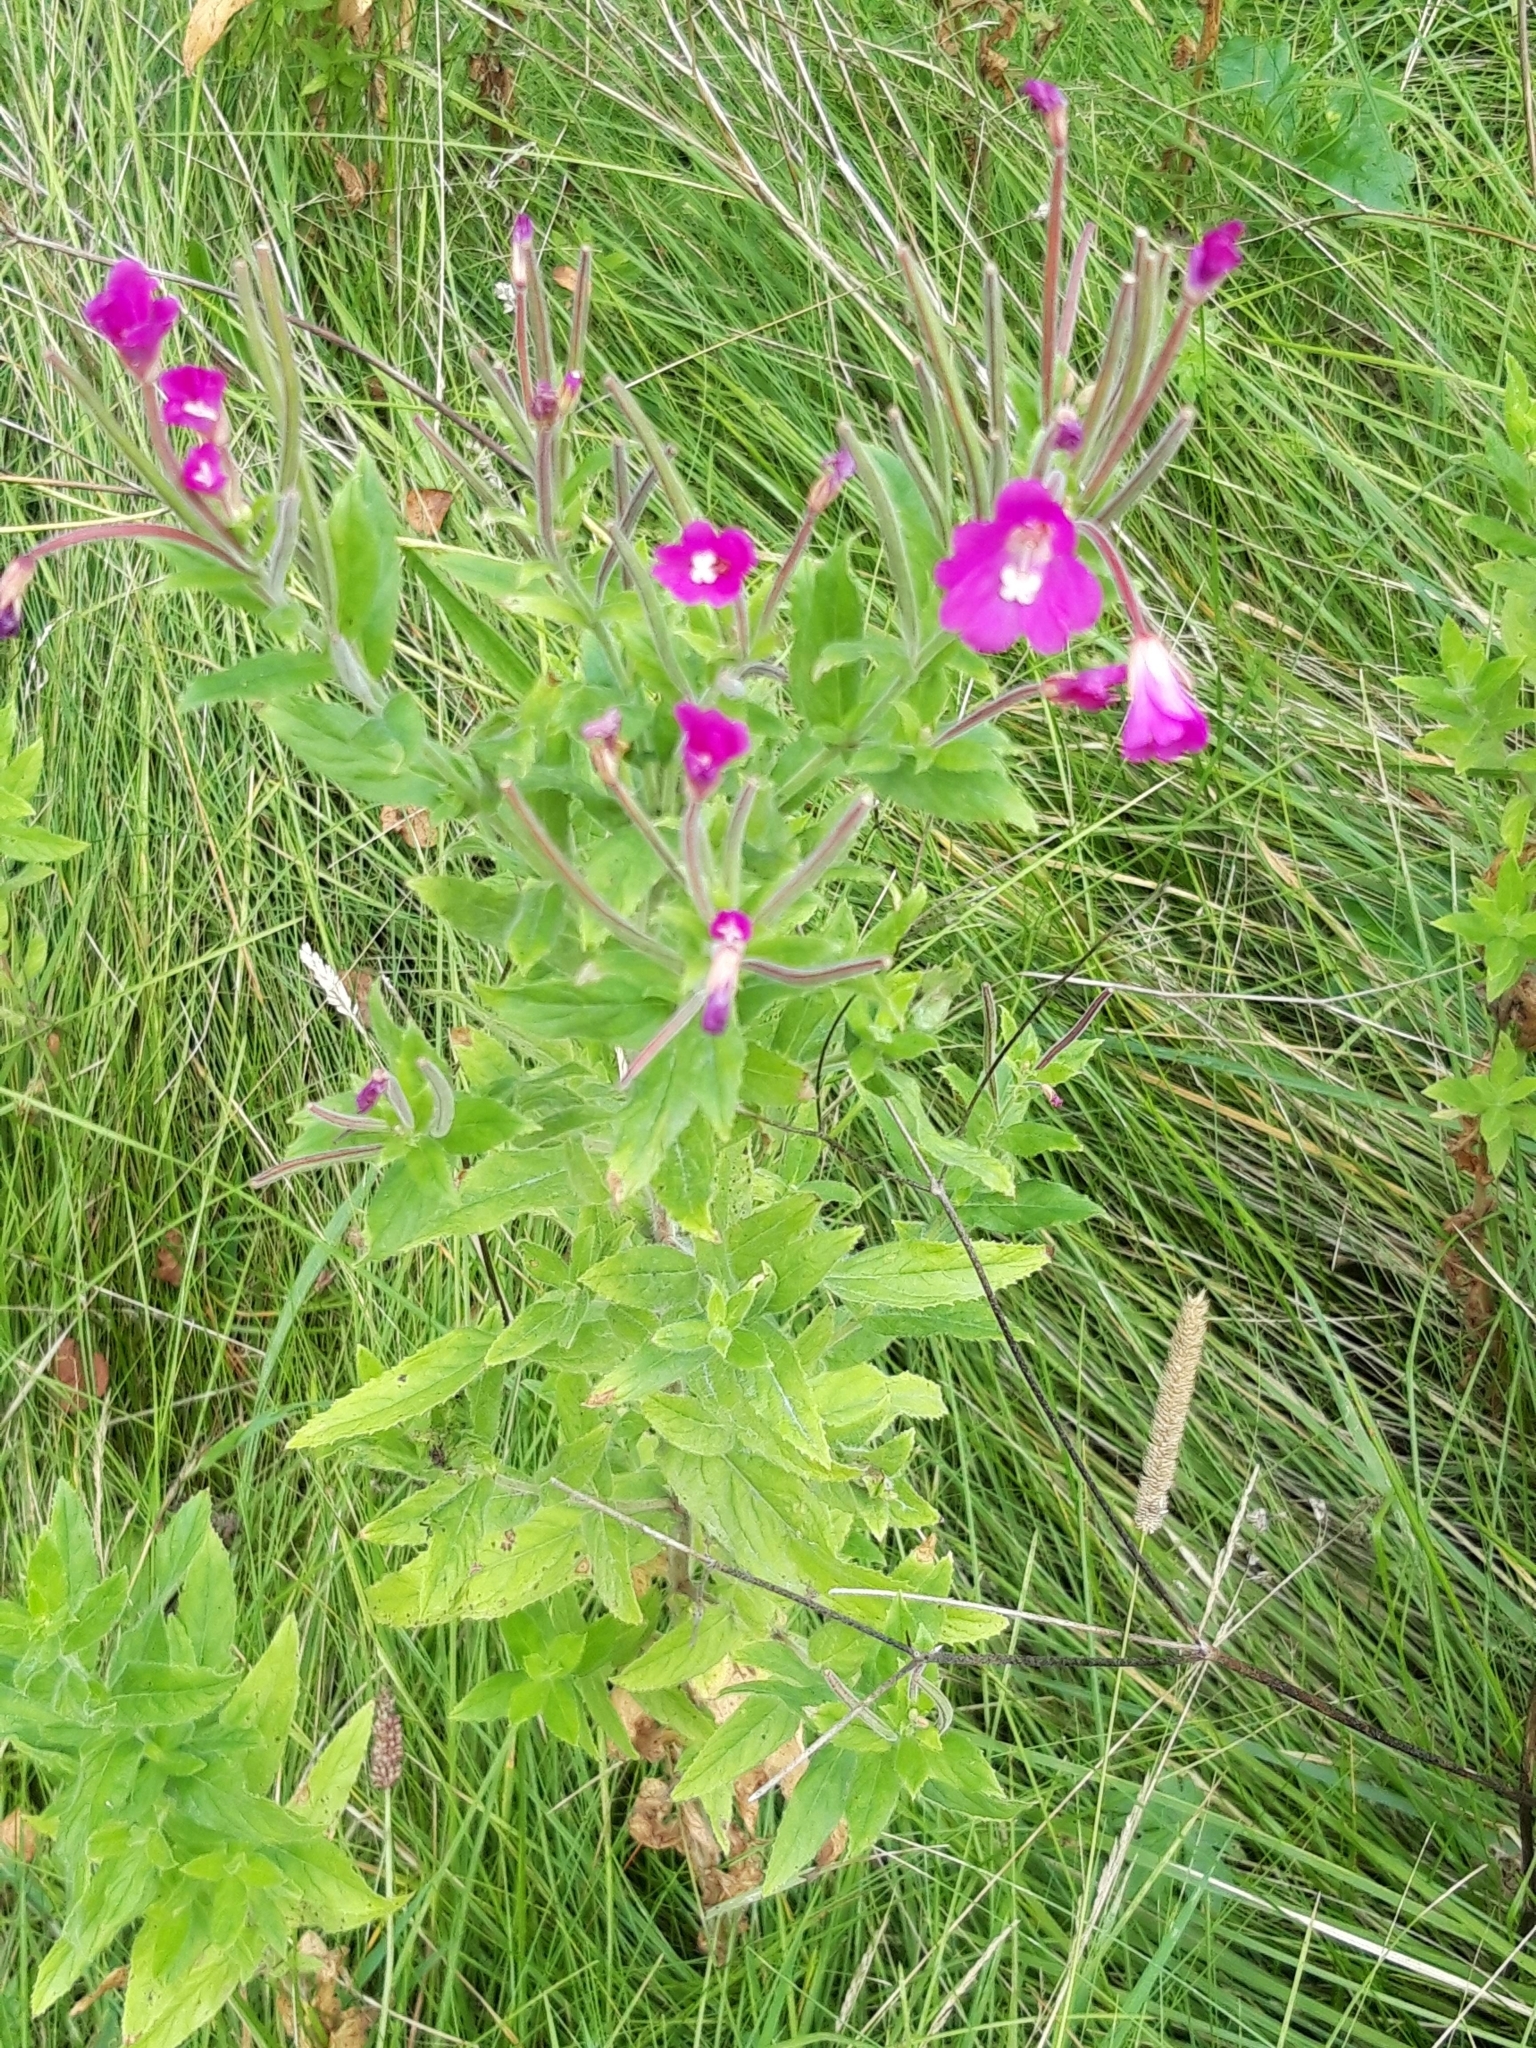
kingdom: Plantae
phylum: Tracheophyta
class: Magnoliopsida
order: Myrtales
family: Onagraceae
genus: Epilobium
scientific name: Epilobium hirsutum
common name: Great willowherb
